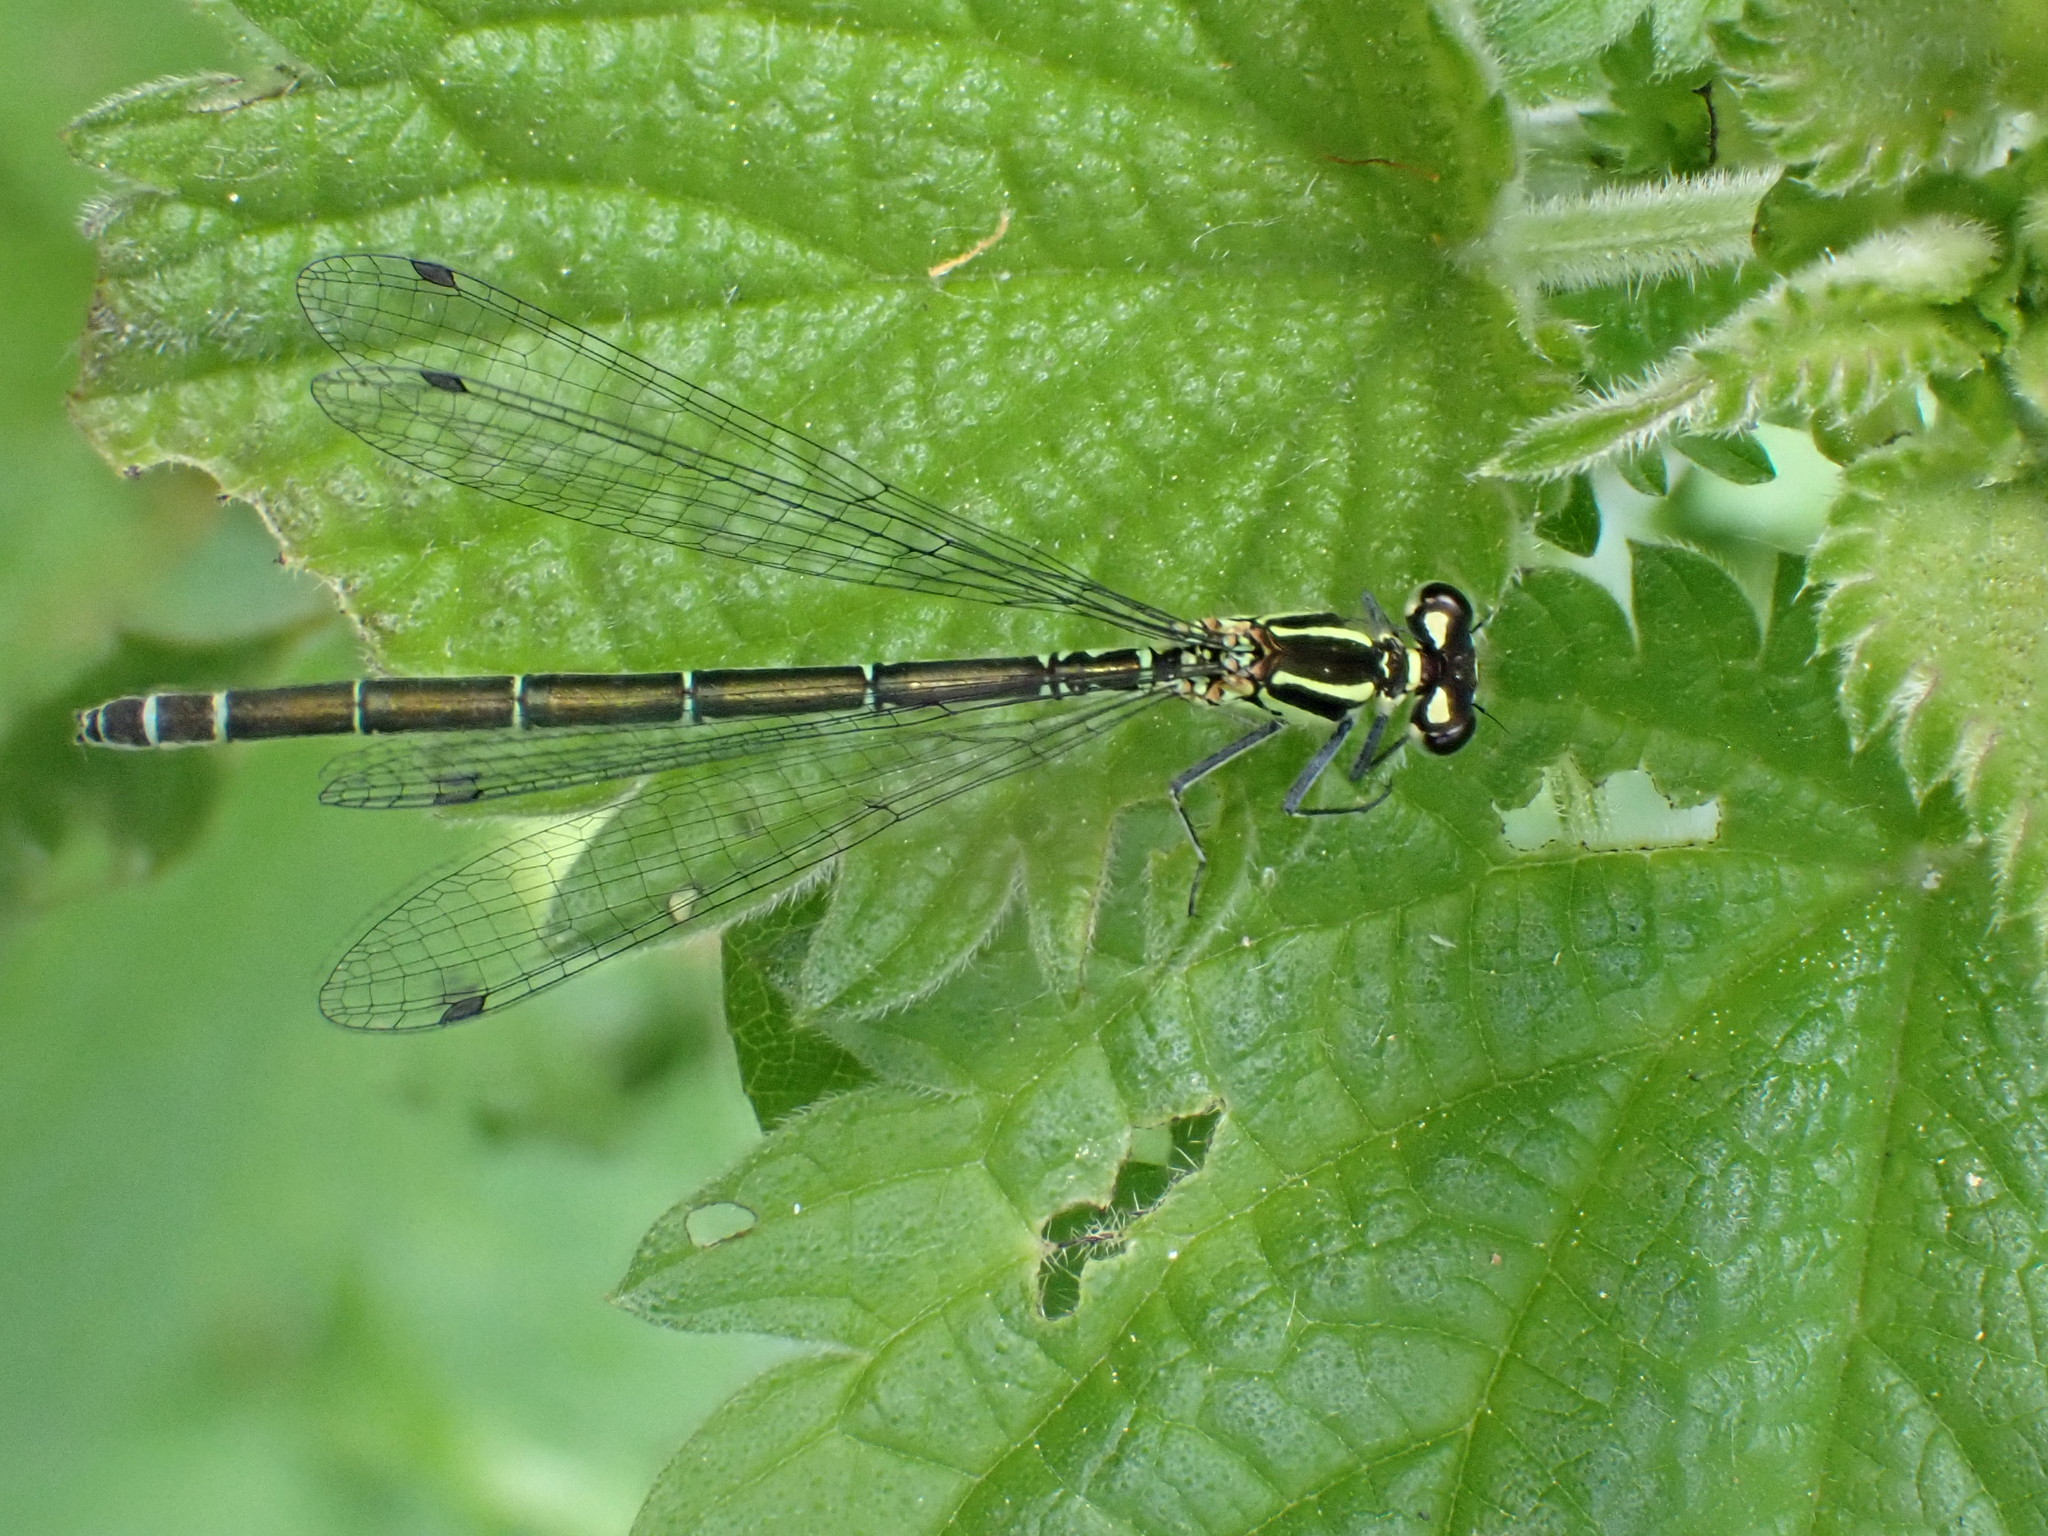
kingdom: Animalia
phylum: Arthropoda
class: Insecta
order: Odonata
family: Coenagrionidae
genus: Coenagrion
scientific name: Coenagrion puella
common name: Azure damselfly
